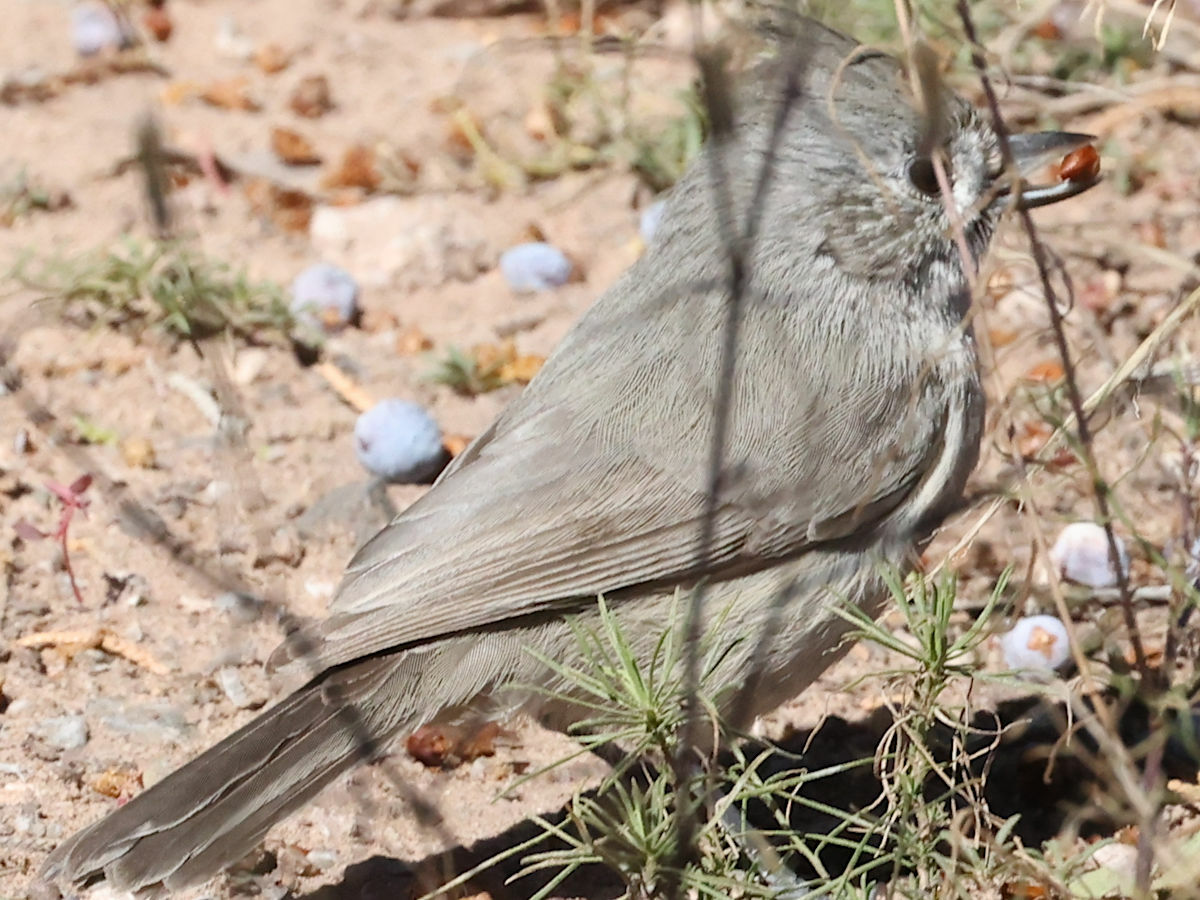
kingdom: Animalia
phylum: Chordata
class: Aves
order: Passeriformes
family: Paridae
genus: Baeolophus
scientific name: Baeolophus ridgwayi
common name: Juniper titmouse
